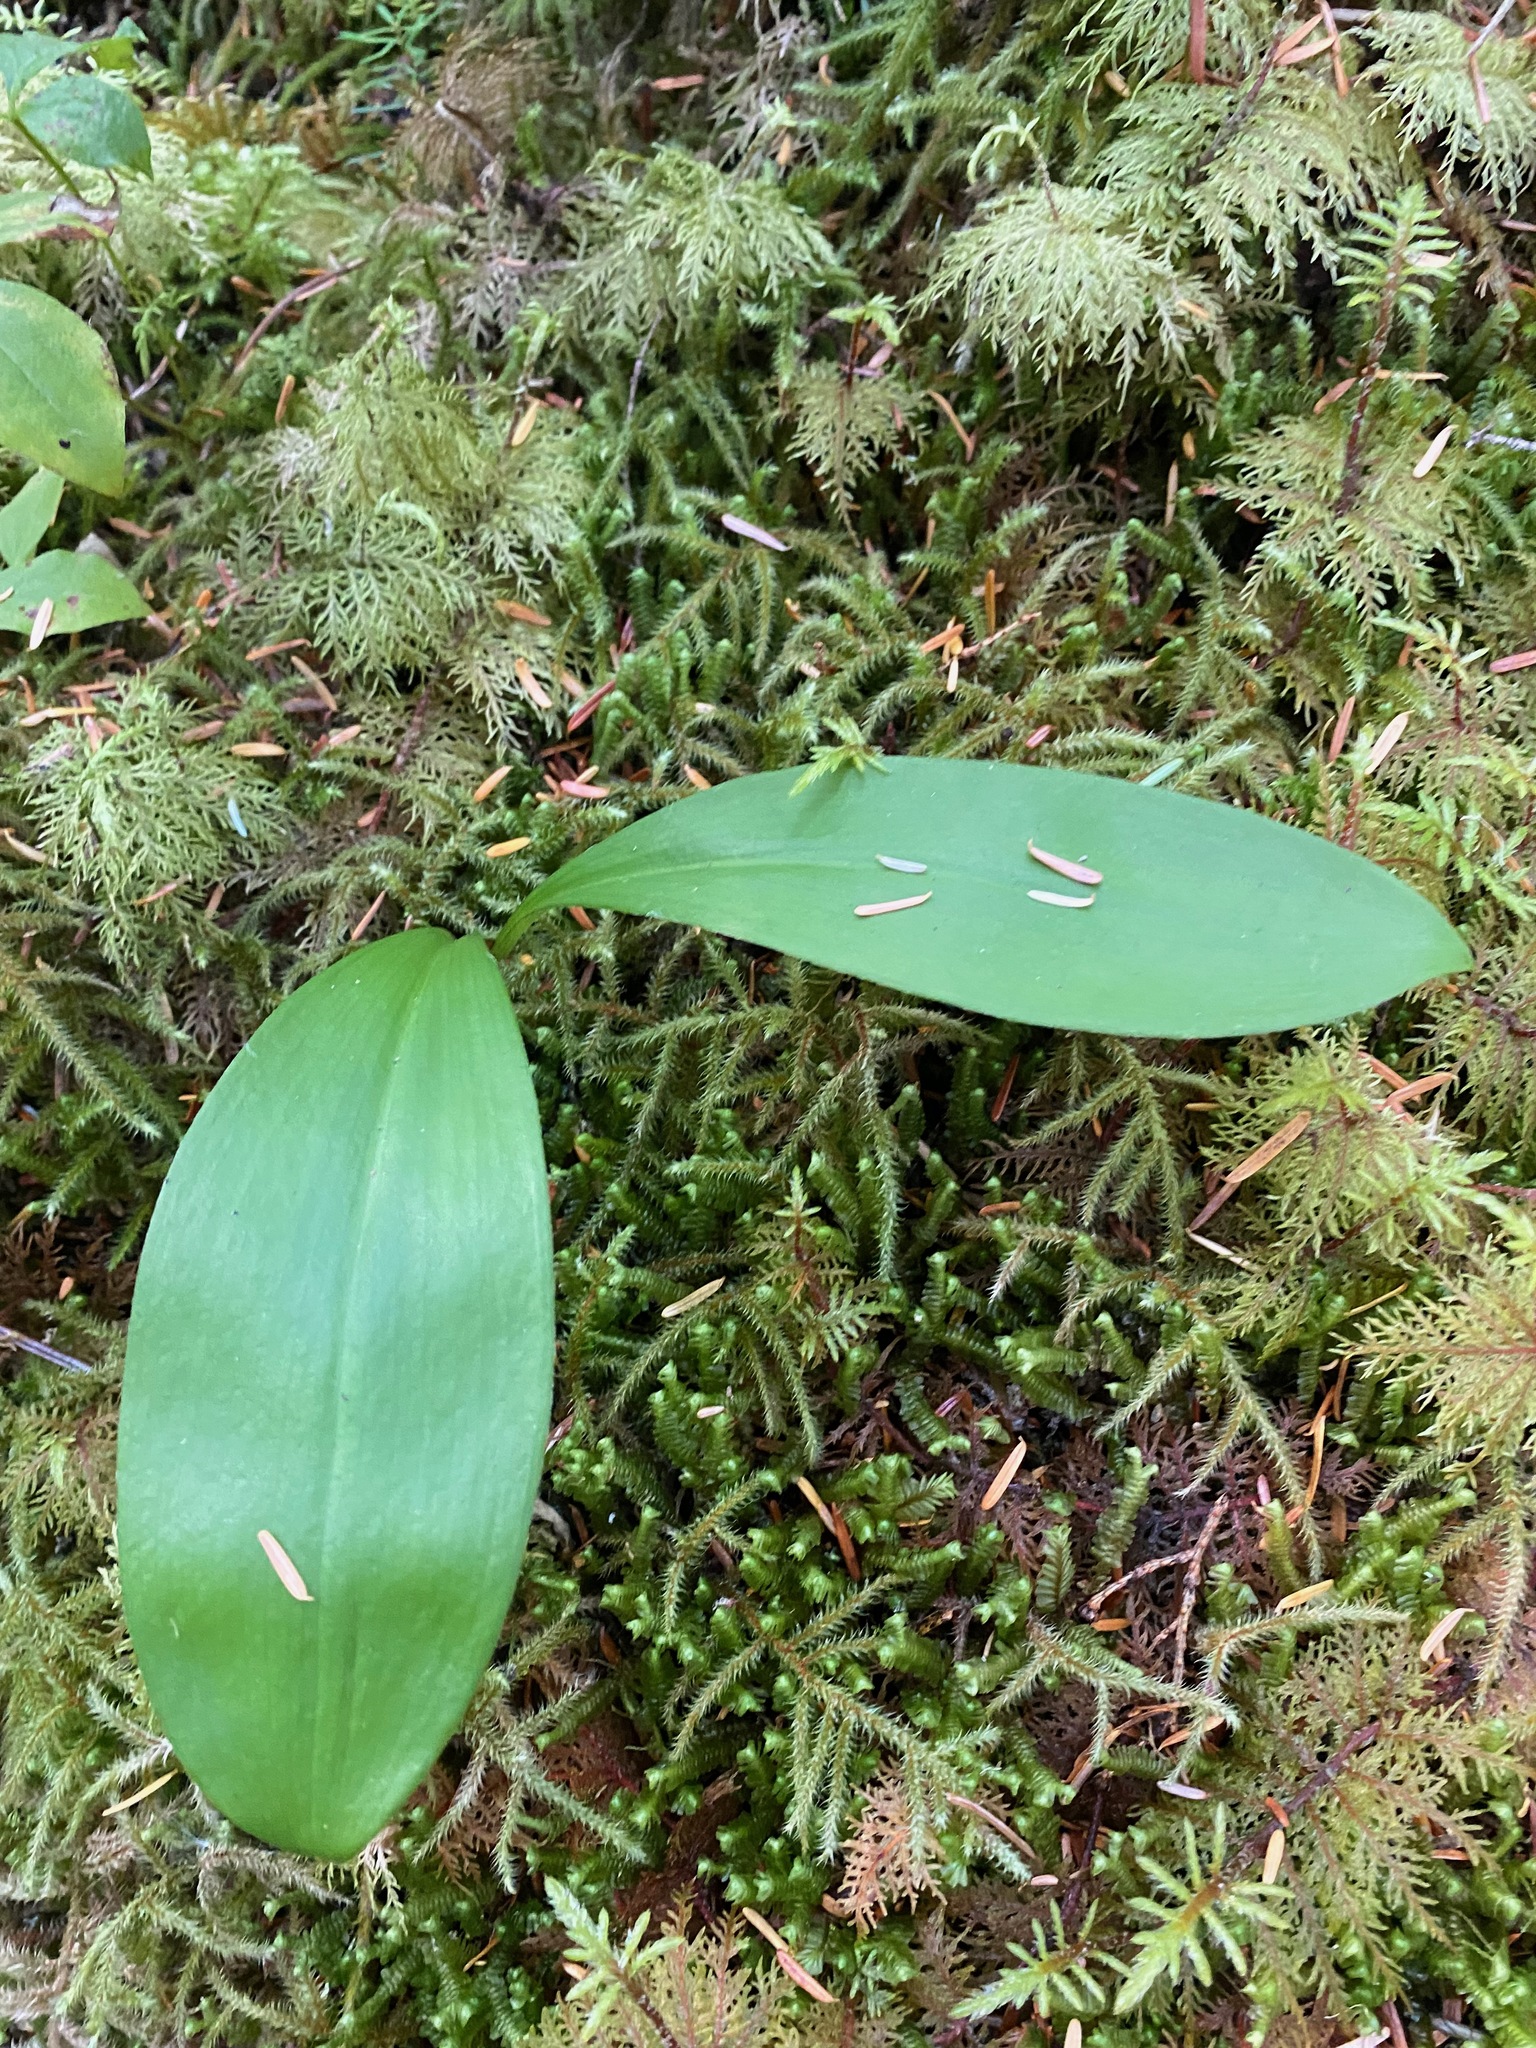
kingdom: Plantae
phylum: Tracheophyta
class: Liliopsida
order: Liliales
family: Liliaceae
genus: Clintonia
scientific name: Clintonia uniflora
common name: Queen's cup
